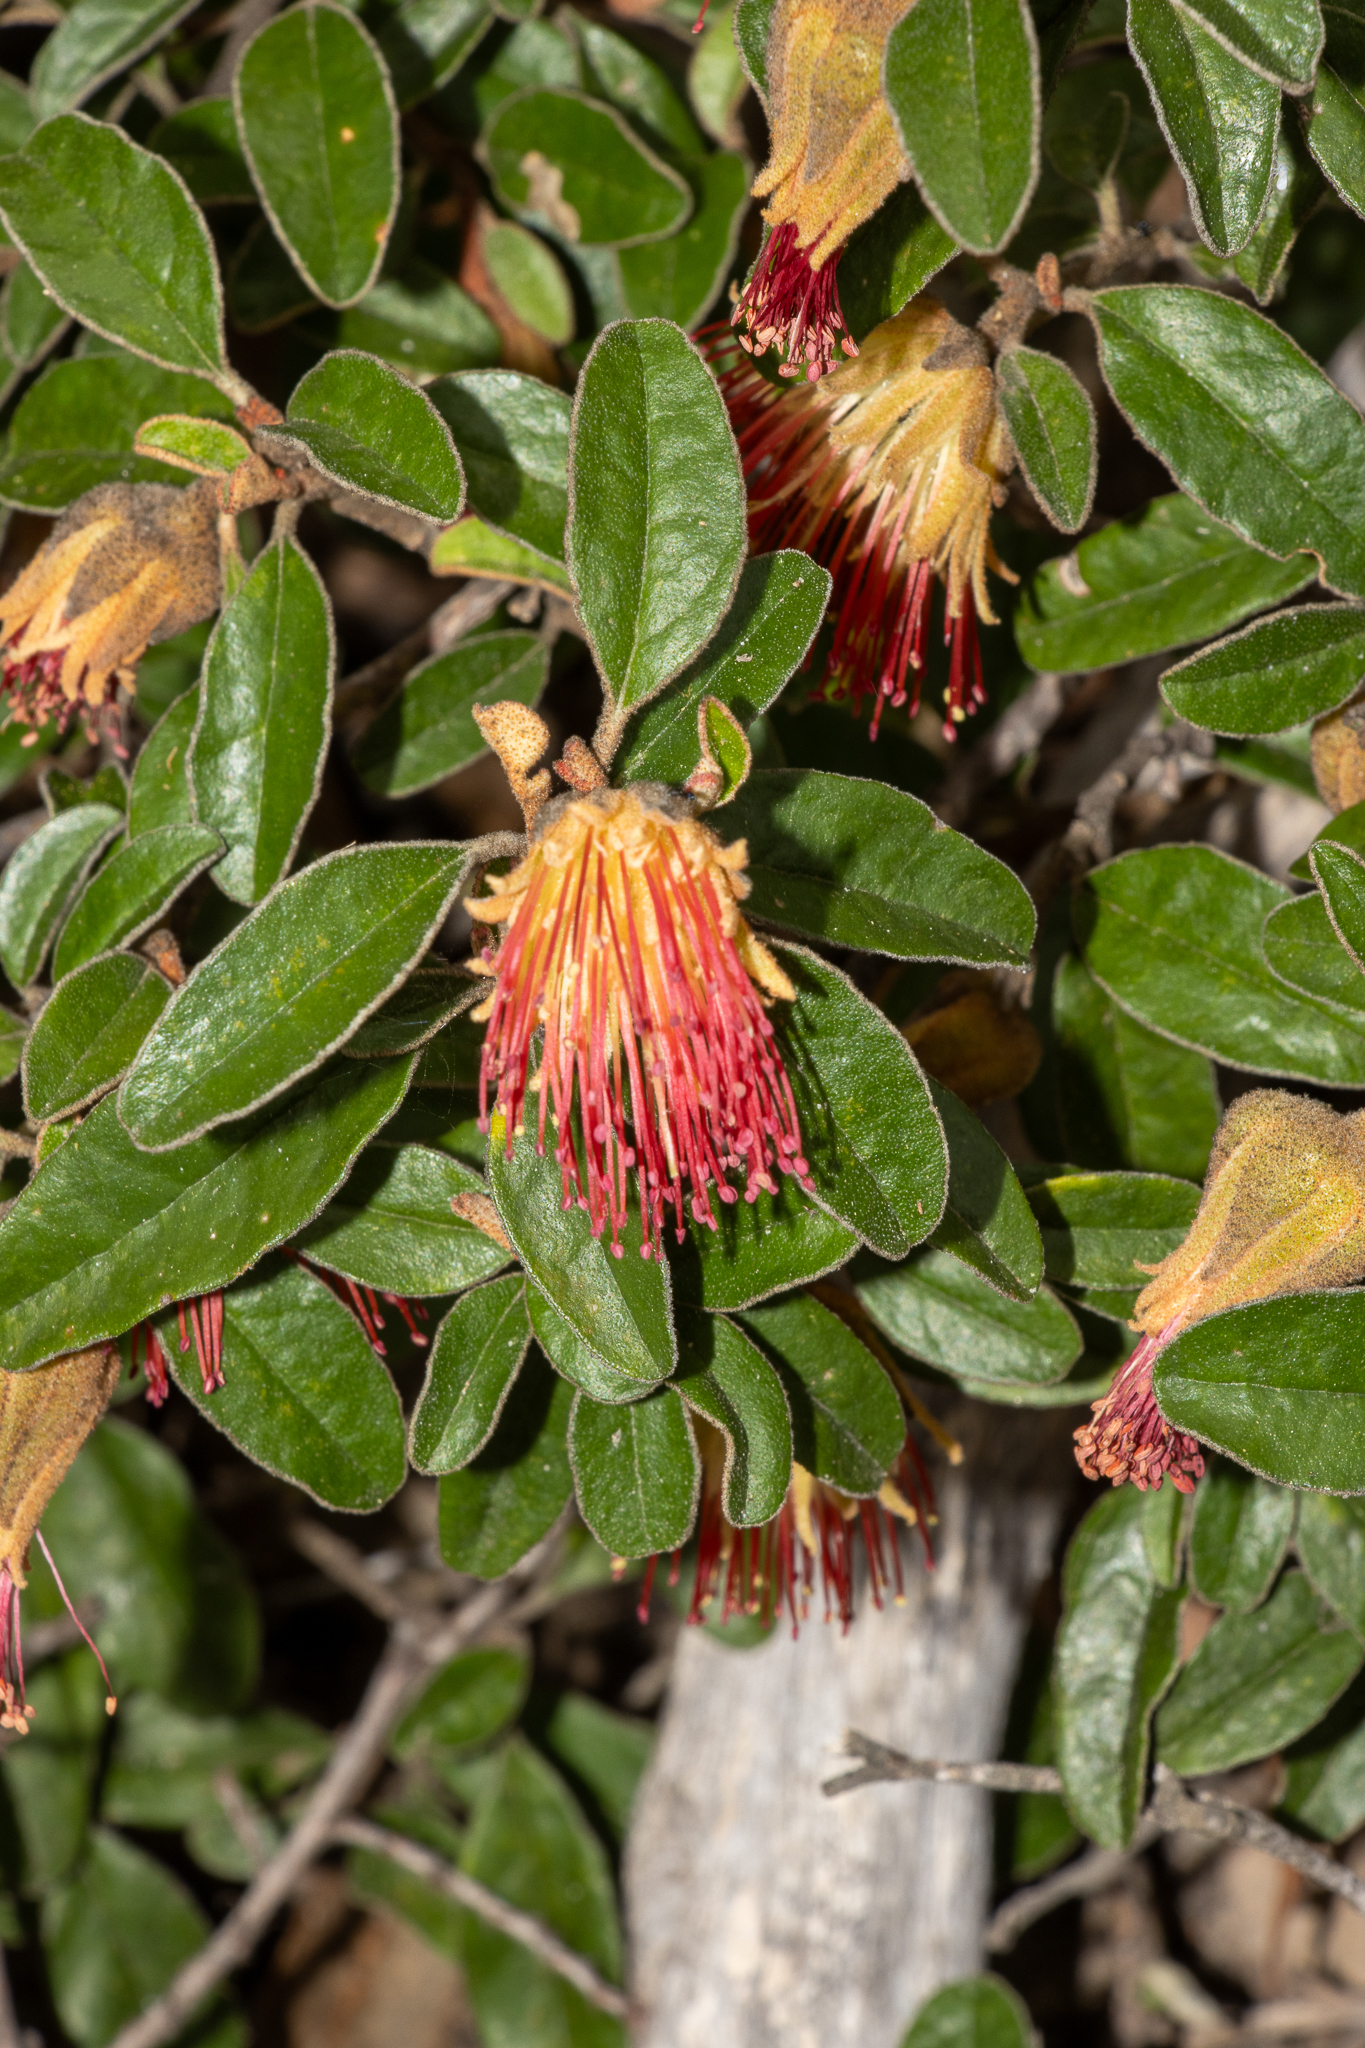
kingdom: Plantae
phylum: Tracheophyta
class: Magnoliopsida
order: Sapindales
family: Rutaceae
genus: Diplolaena
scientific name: Diplolaena ferruginea
